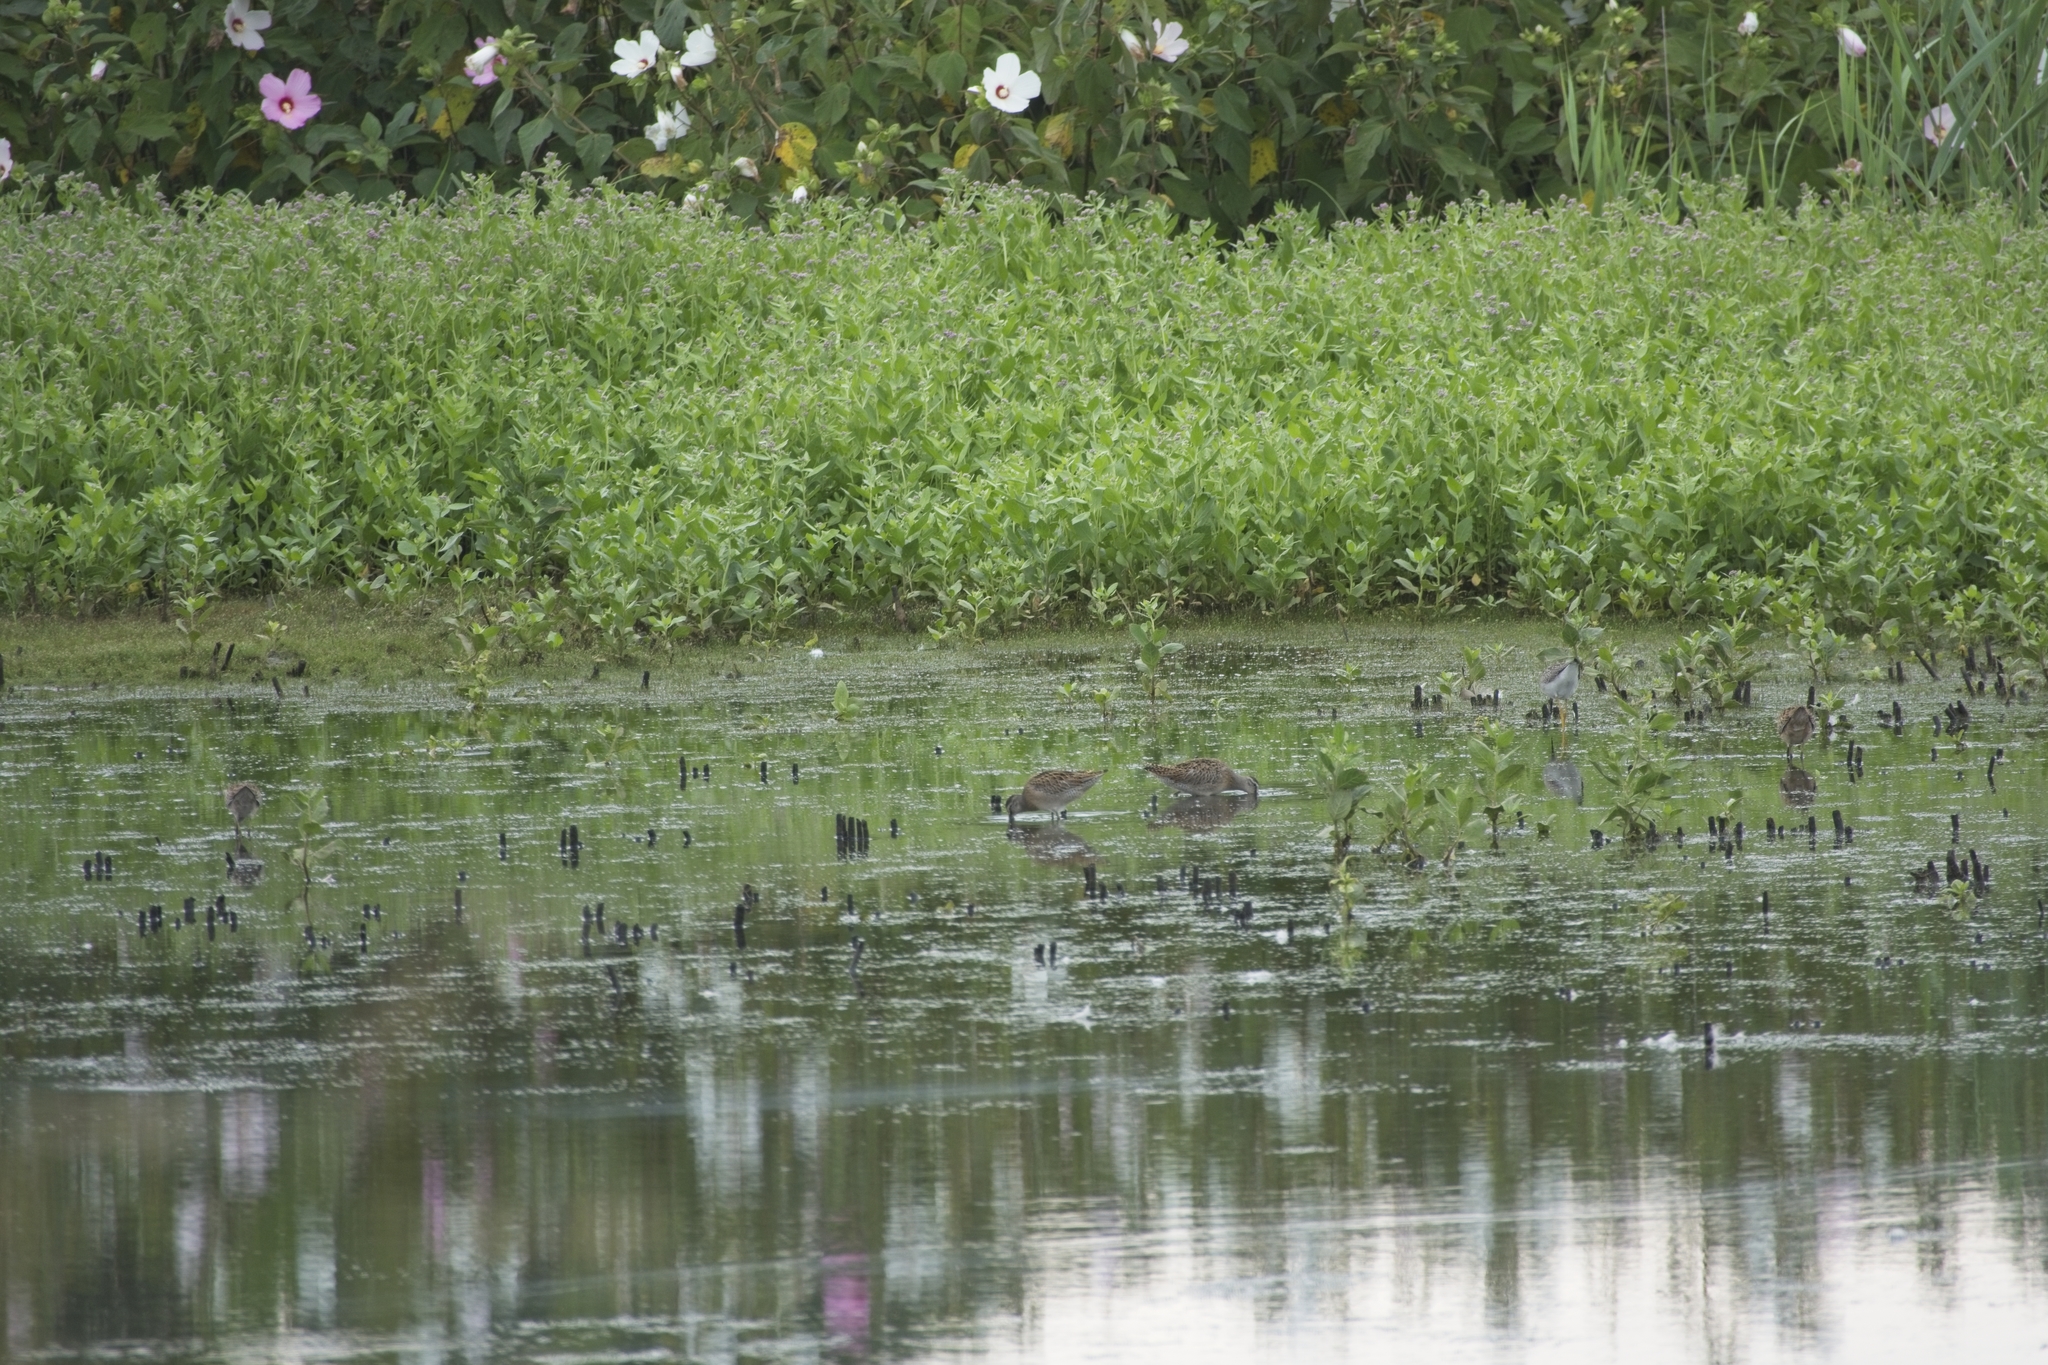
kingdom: Animalia
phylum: Chordata
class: Aves
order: Charadriiformes
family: Scolopacidae
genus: Limnodromus
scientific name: Limnodromus griseus
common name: Short-billed dowitcher
